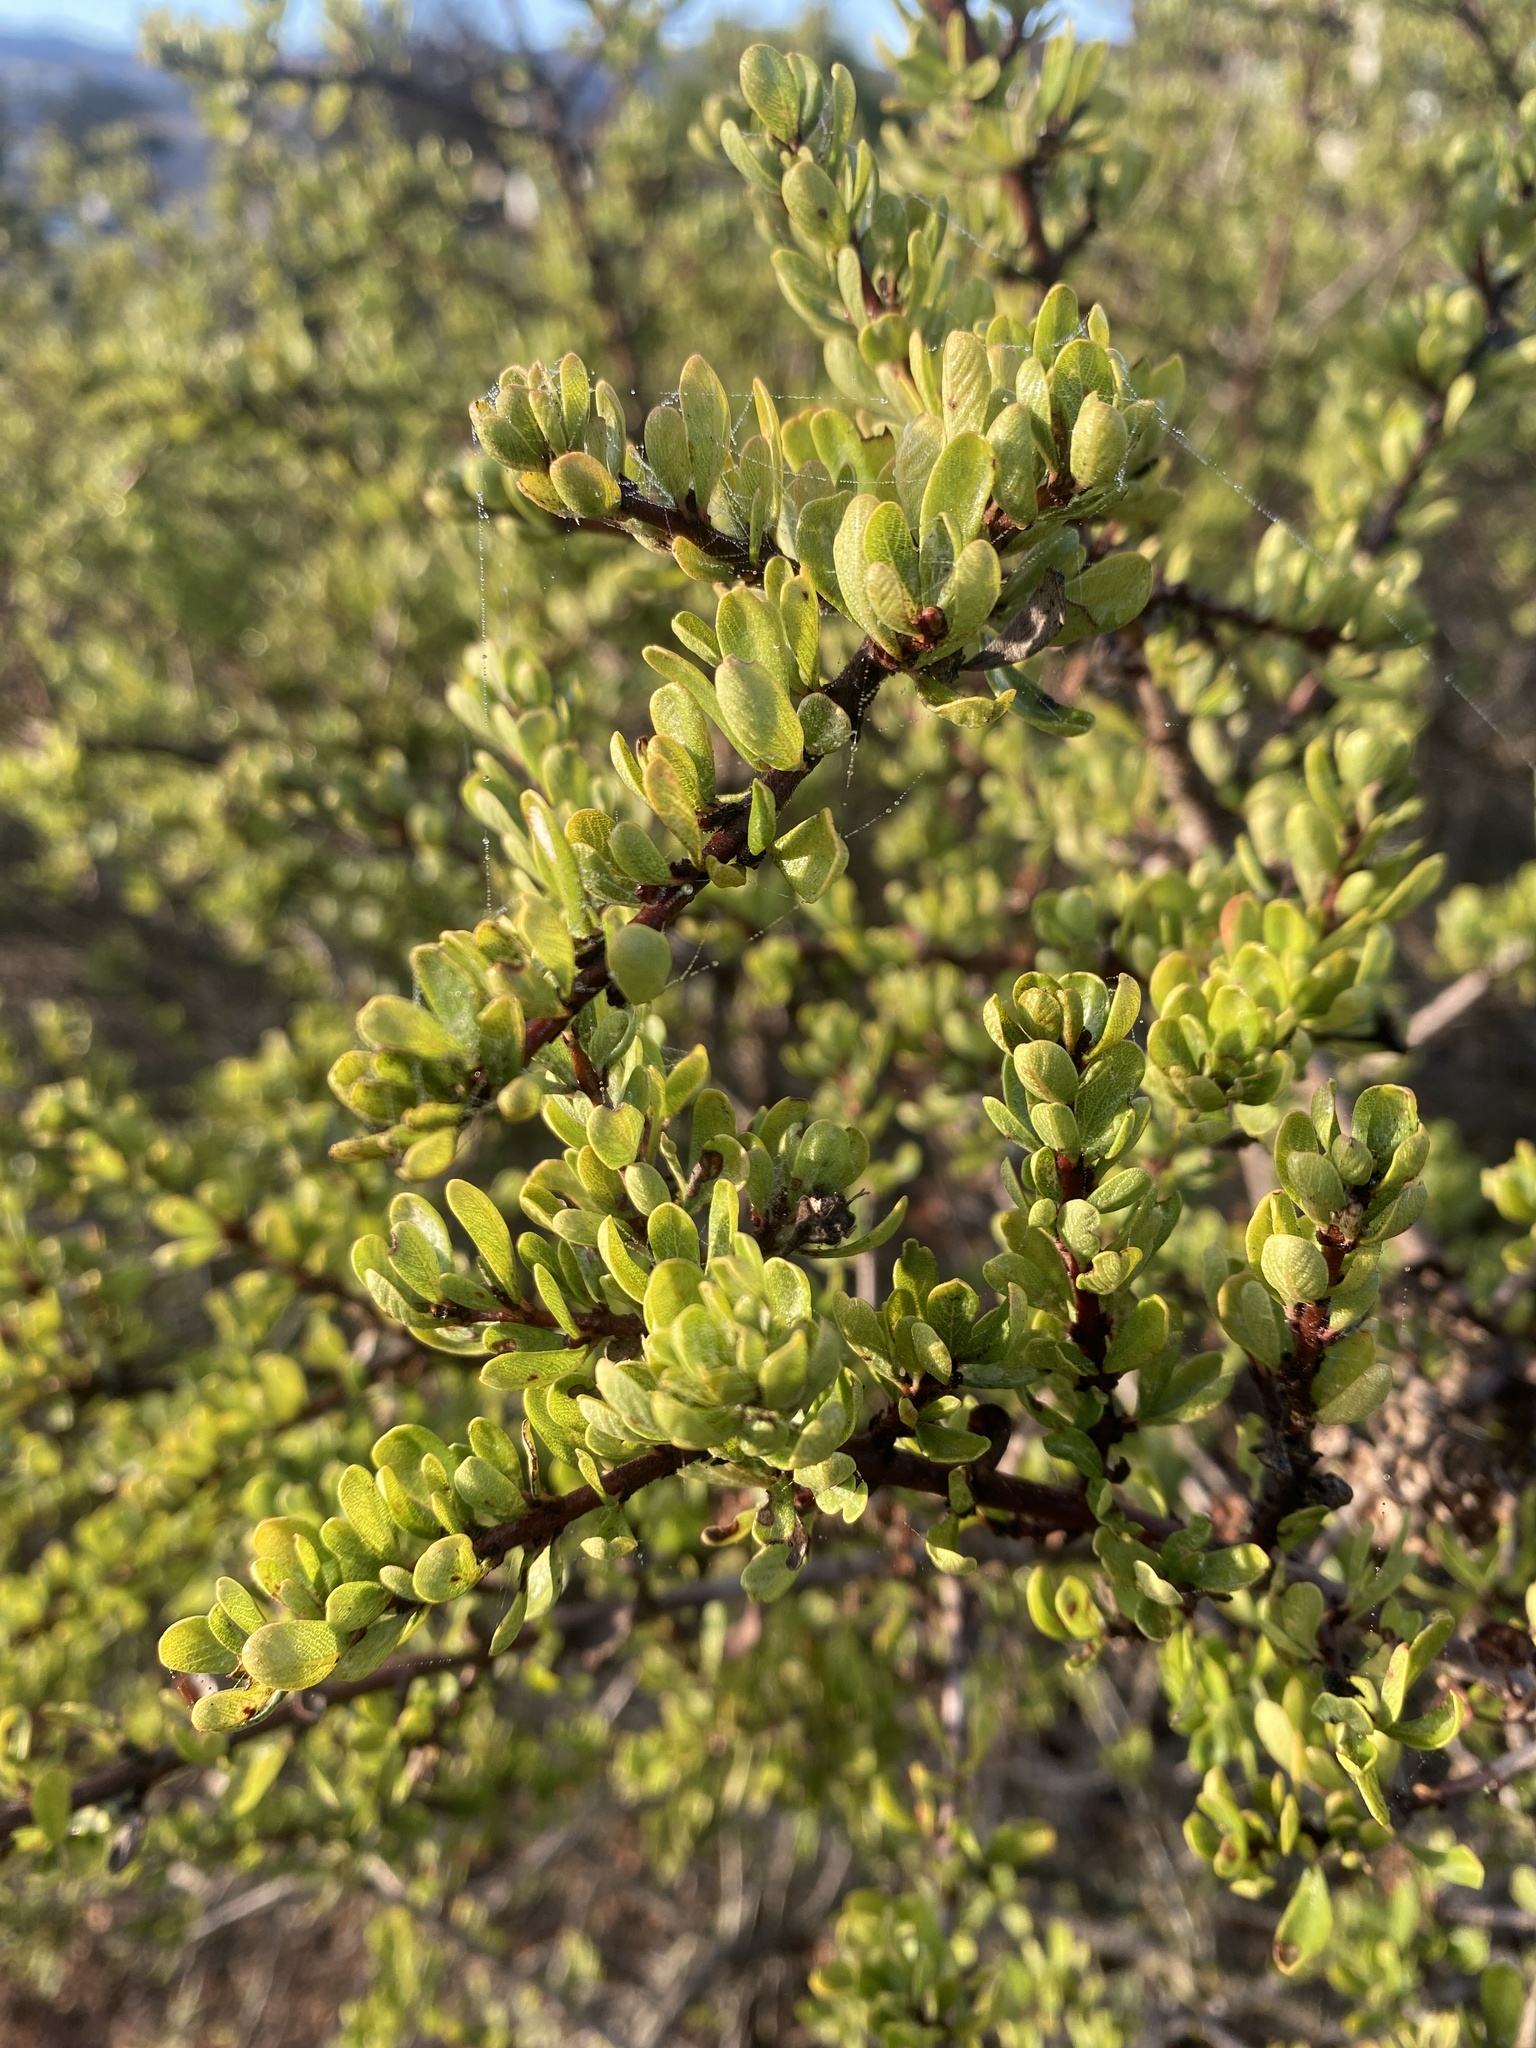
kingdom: Plantae
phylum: Tracheophyta
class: Magnoliopsida
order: Rosales
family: Rhamnaceae
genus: Ceanothus
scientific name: Ceanothus cuneatus
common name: Cuneate ceanothus
